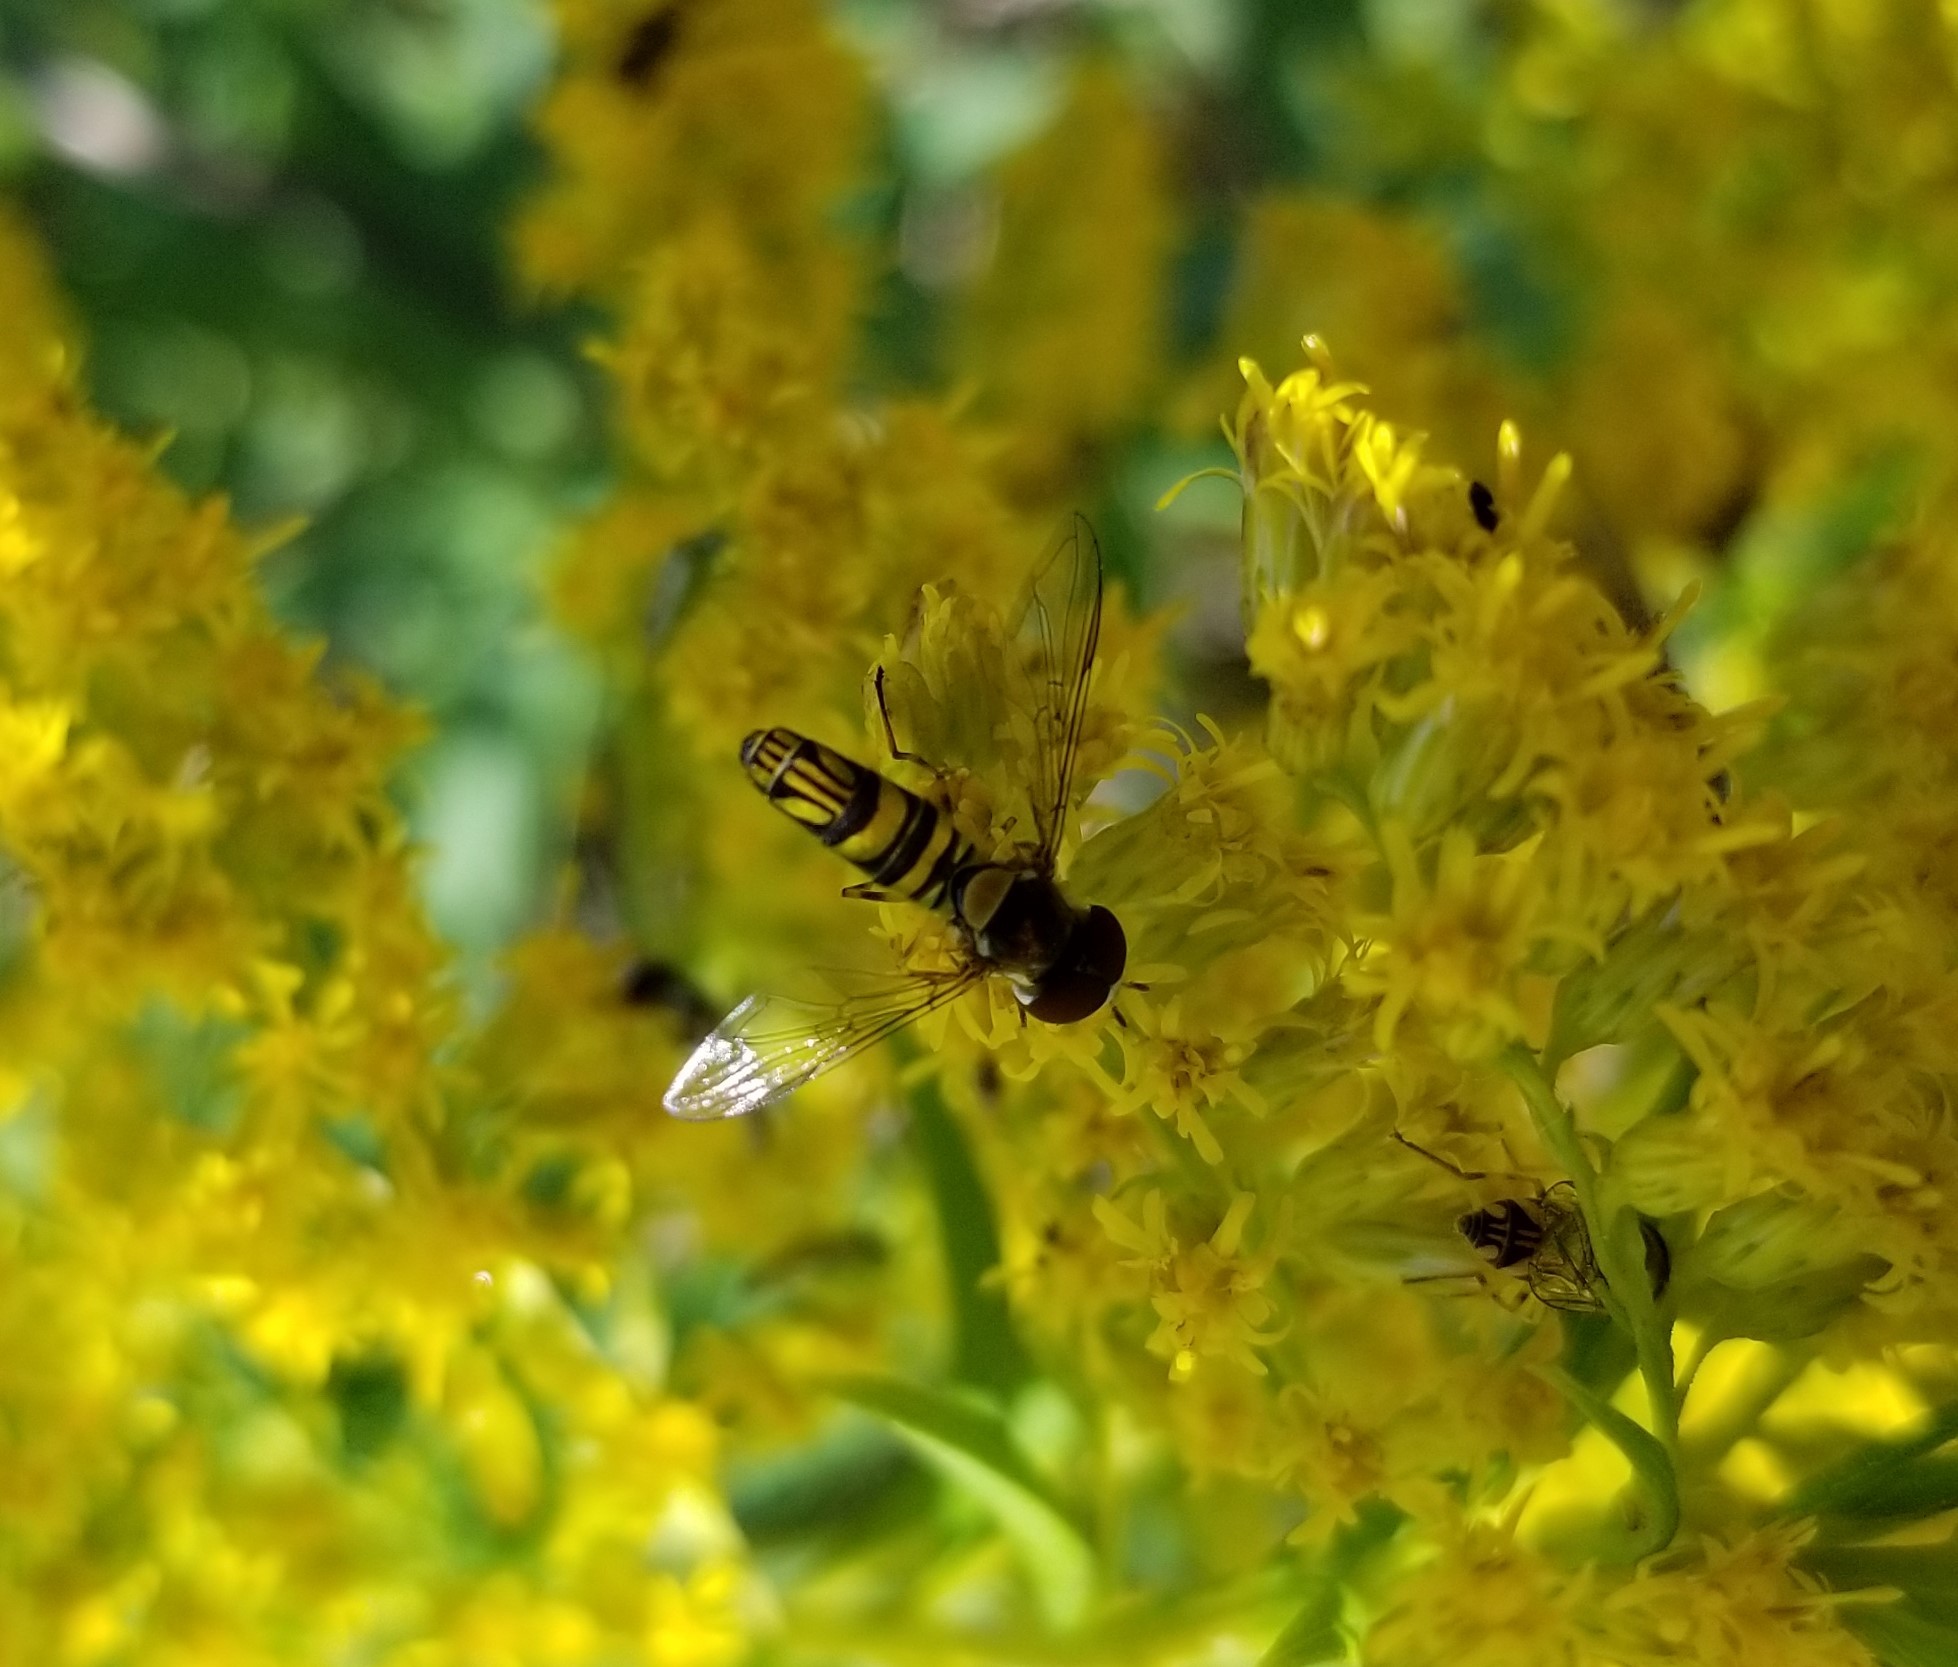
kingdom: Animalia
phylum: Arthropoda
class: Insecta
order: Diptera
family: Syrphidae
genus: Allograpta
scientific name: Allograpta obliqua
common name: Common oblique syrphid
